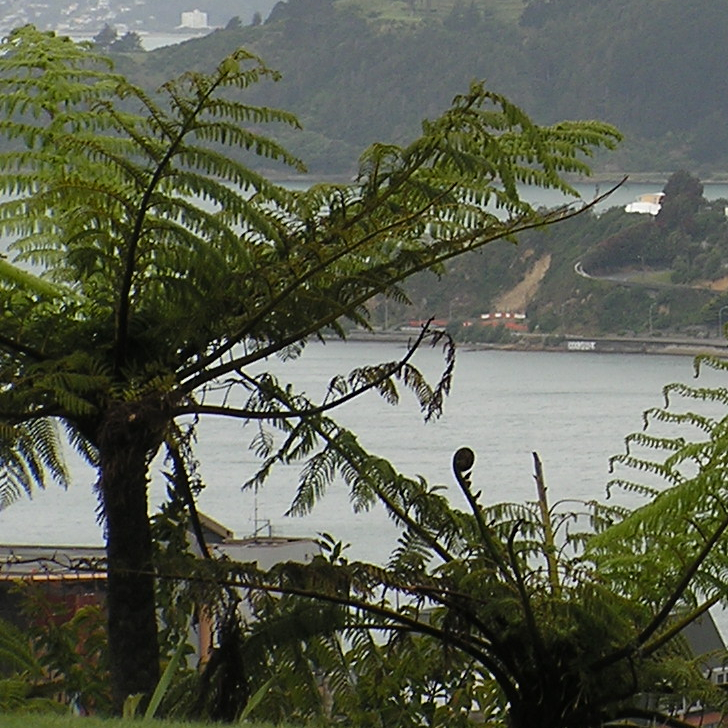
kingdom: Plantae
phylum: Tracheophyta
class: Polypodiopsida
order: Cyatheales
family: Cyatheaceae
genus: Sphaeropteris
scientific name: Sphaeropteris medullaris
